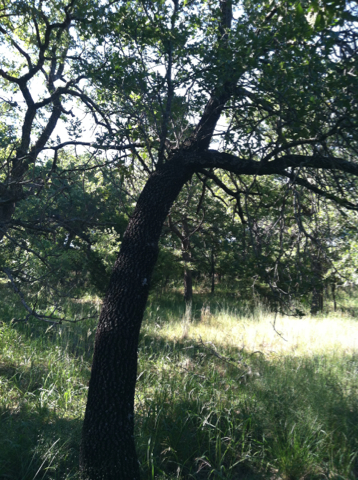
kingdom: Plantae
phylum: Tracheophyta
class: Magnoliopsida
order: Fagales
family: Fagaceae
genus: Quercus
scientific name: Quercus marilandica
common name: Blackjack oak
